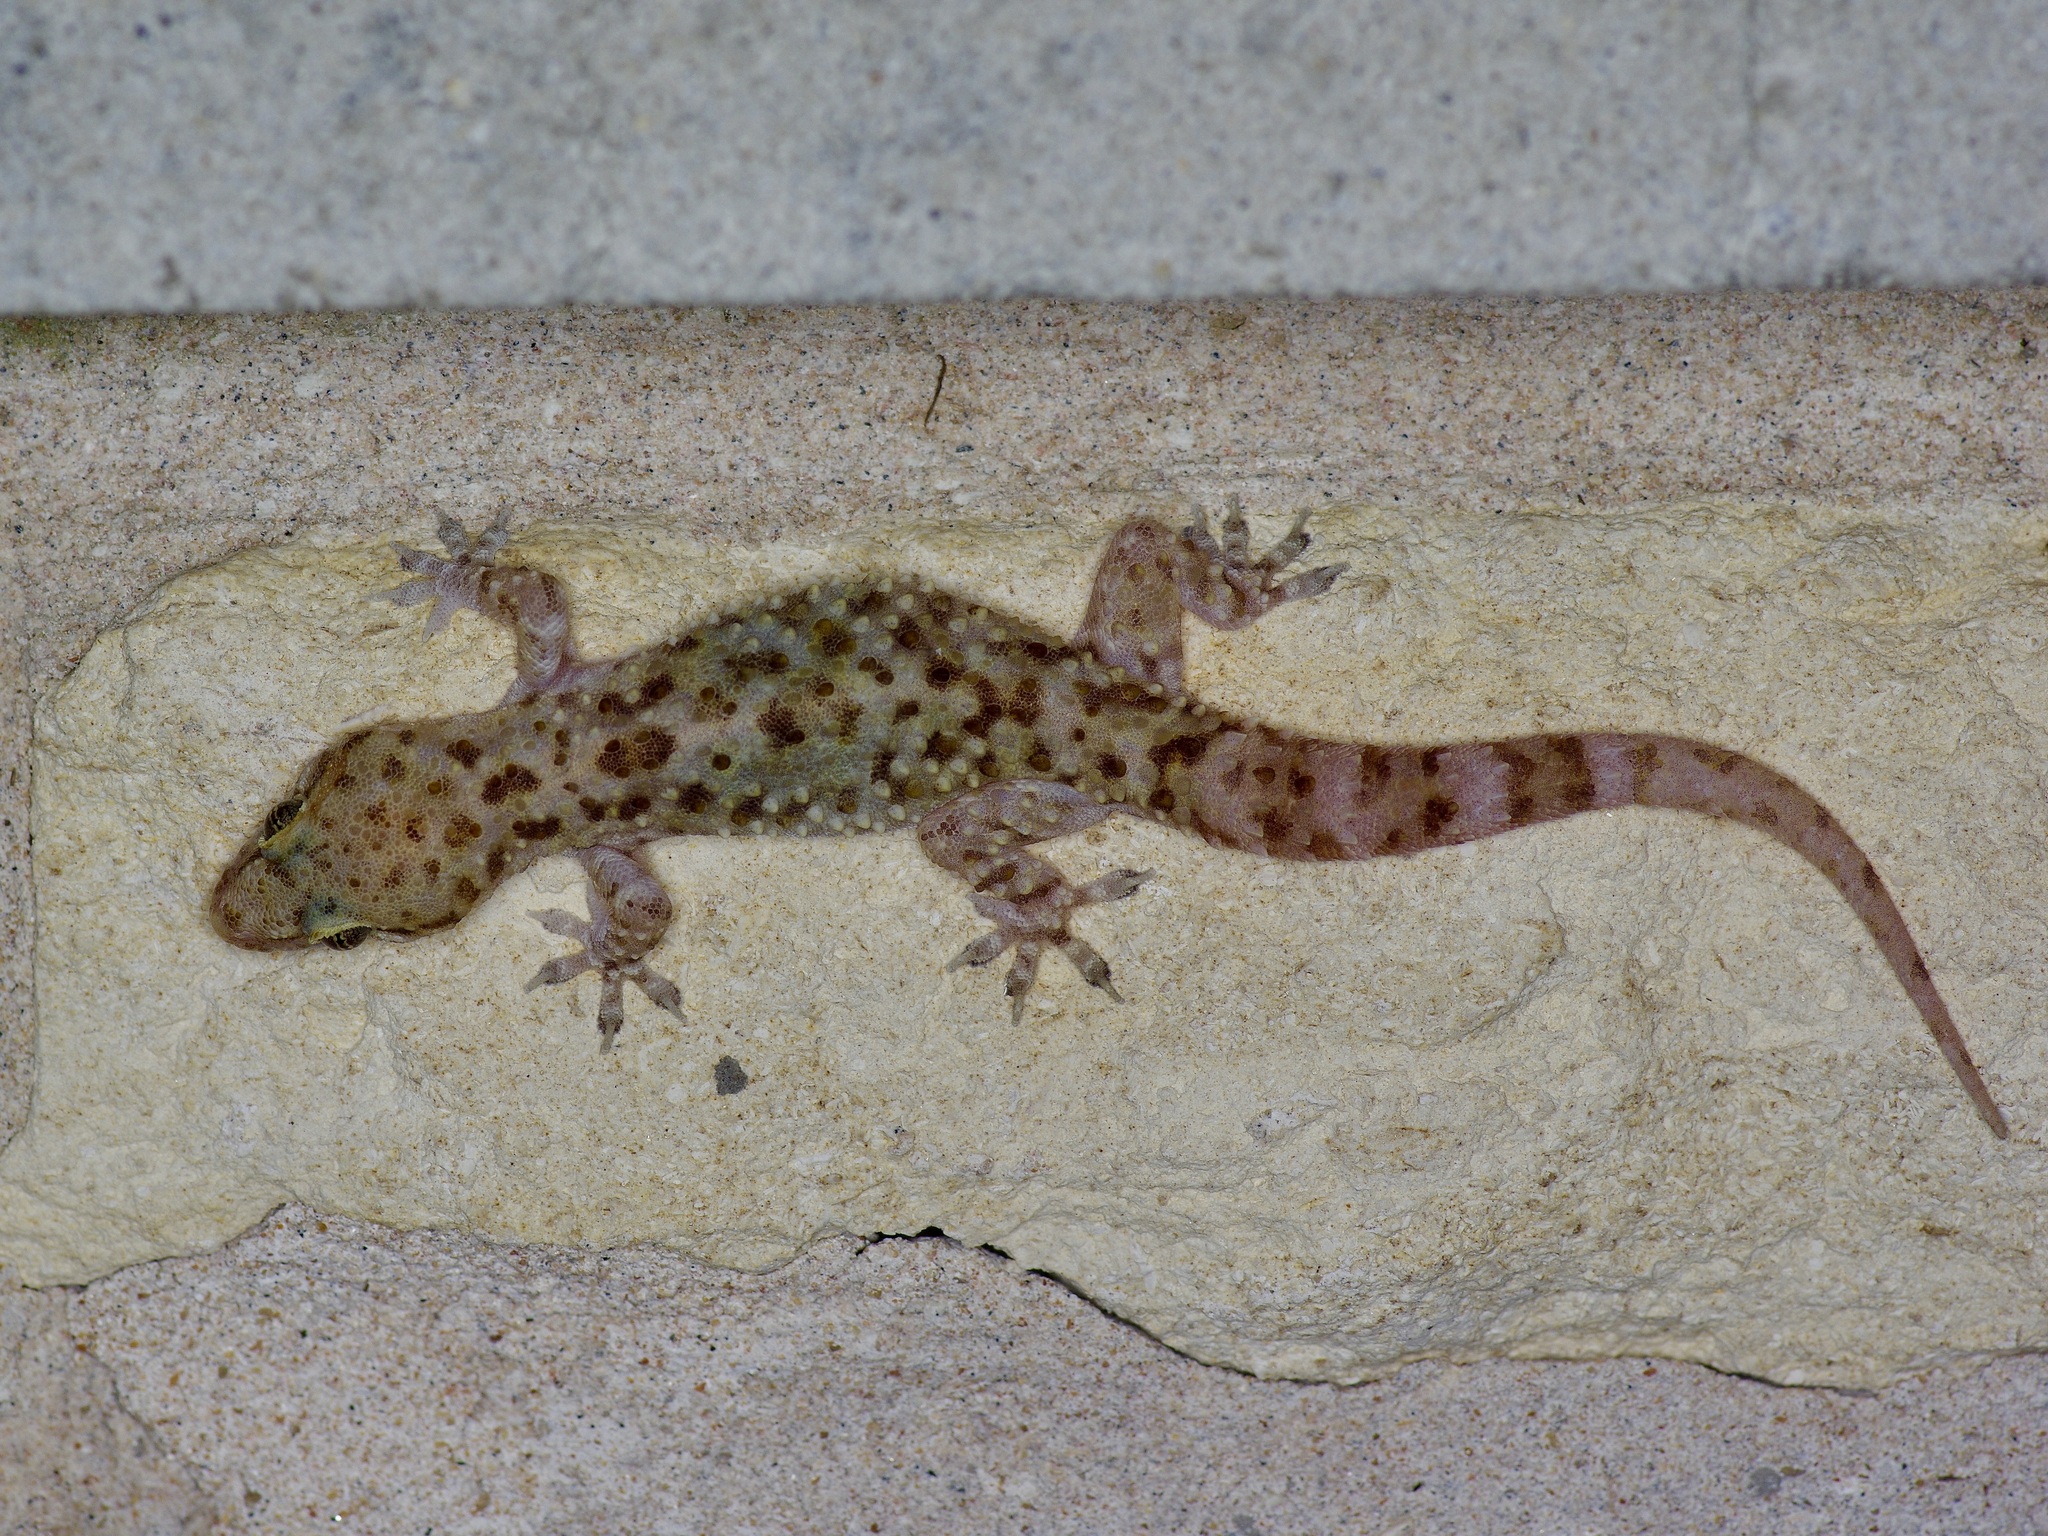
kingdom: Animalia
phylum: Chordata
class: Squamata
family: Gekkonidae
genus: Hemidactylus
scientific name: Hemidactylus turcicus
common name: Turkish gecko
